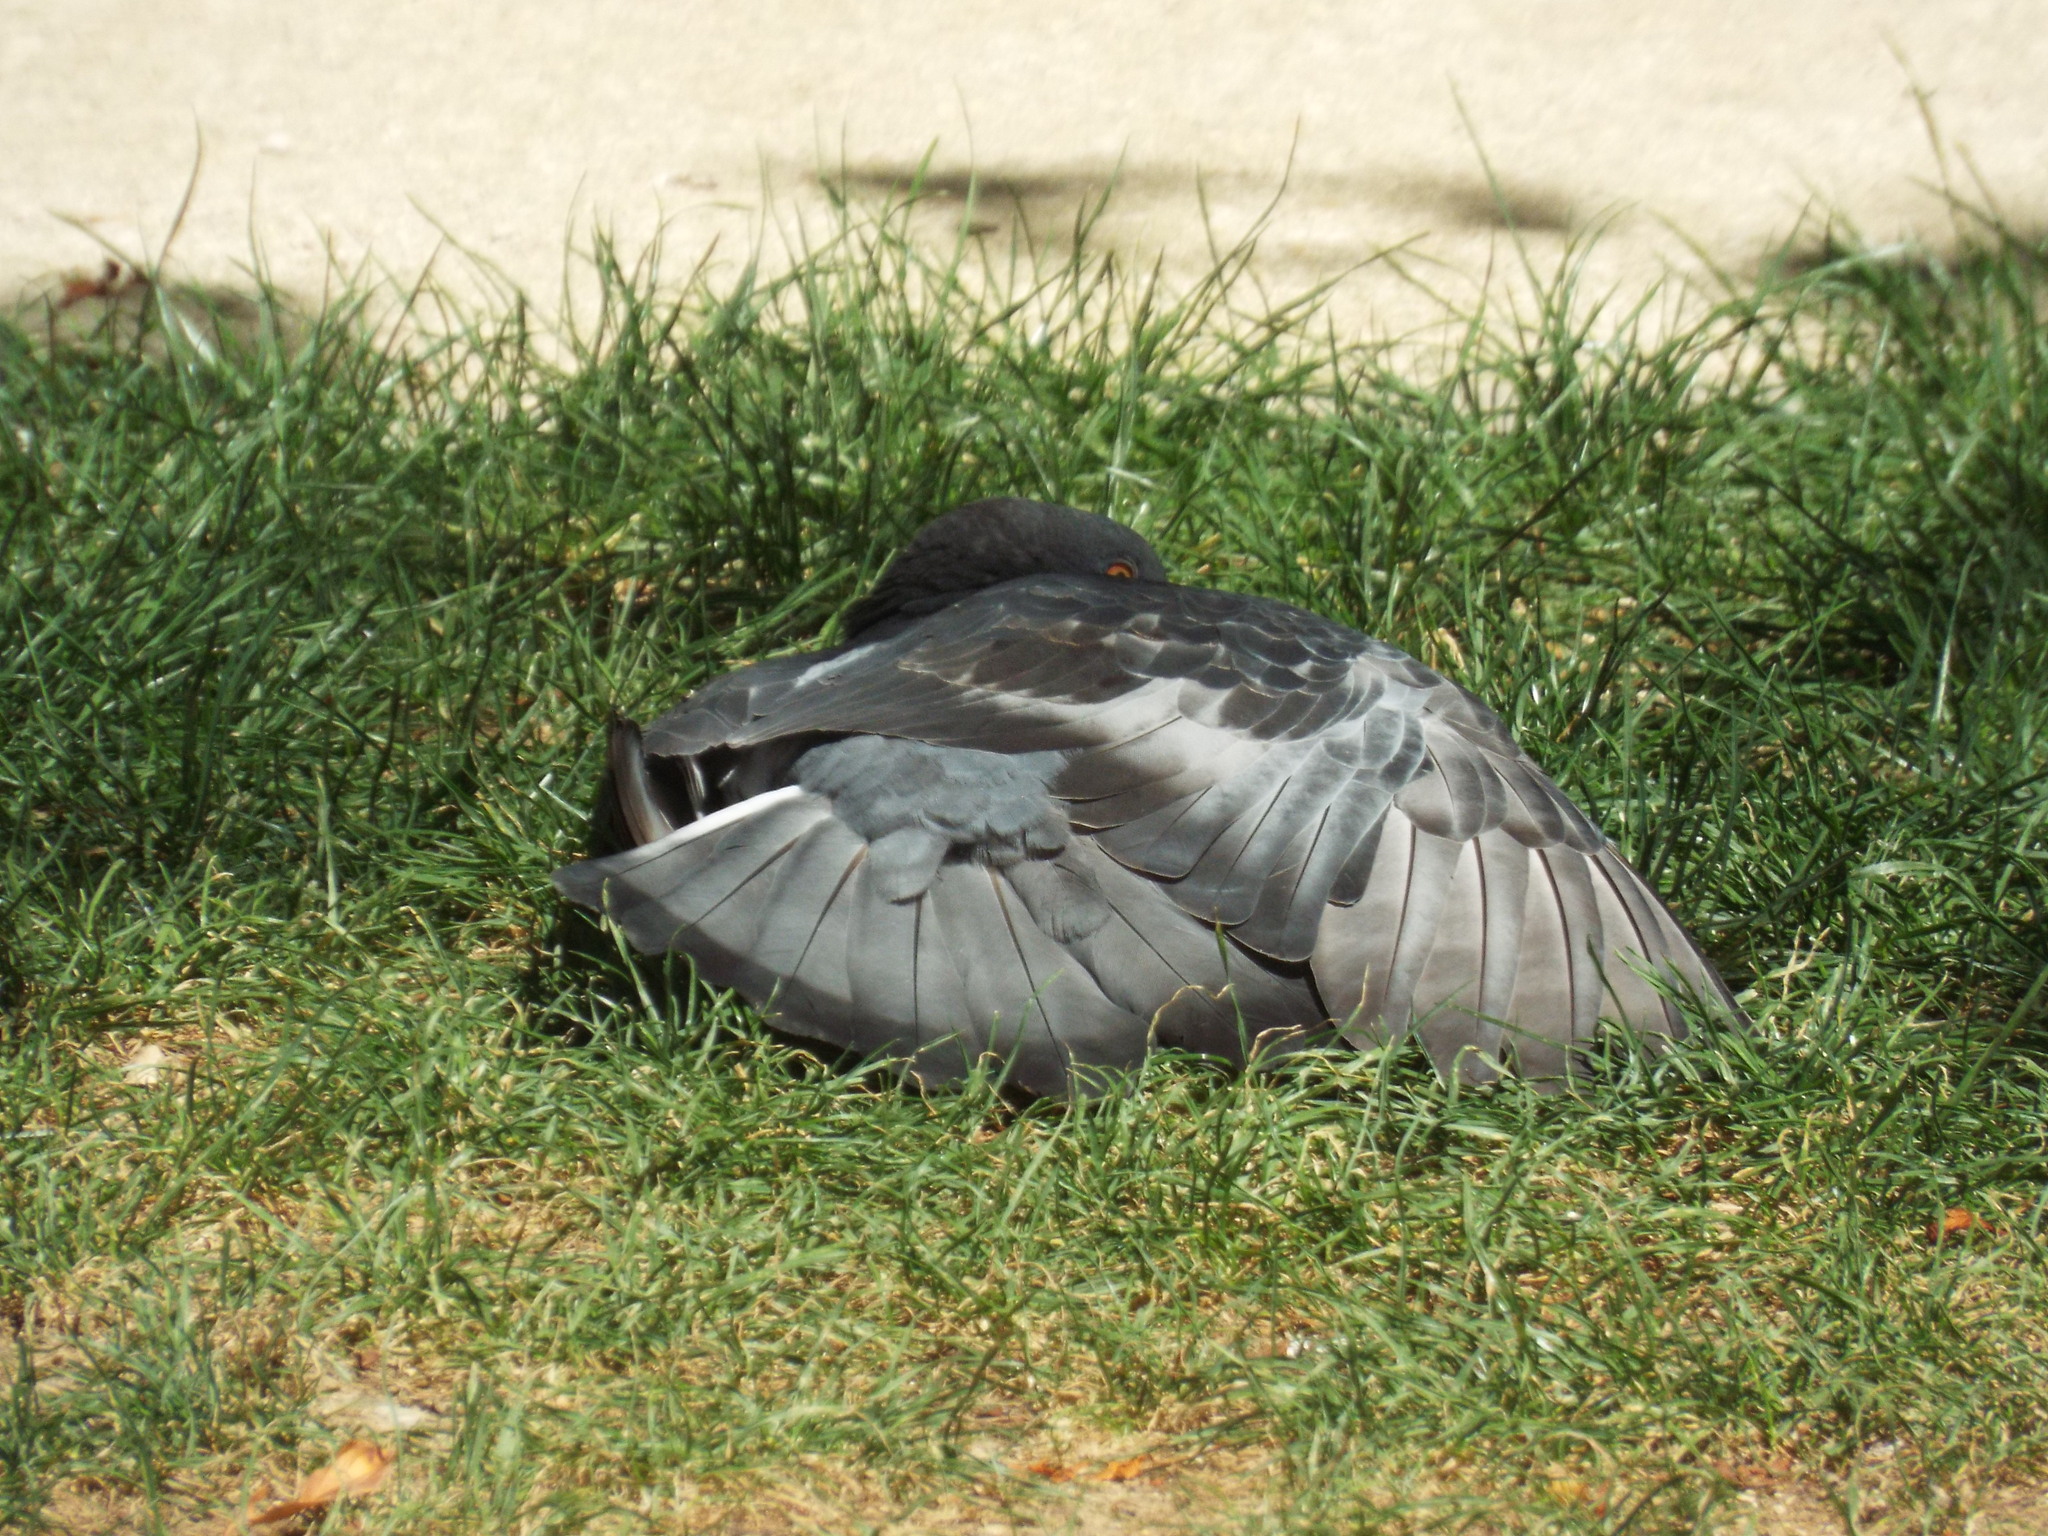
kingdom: Animalia
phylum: Chordata
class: Aves
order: Columbiformes
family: Columbidae
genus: Columba
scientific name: Columba livia
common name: Rock pigeon
